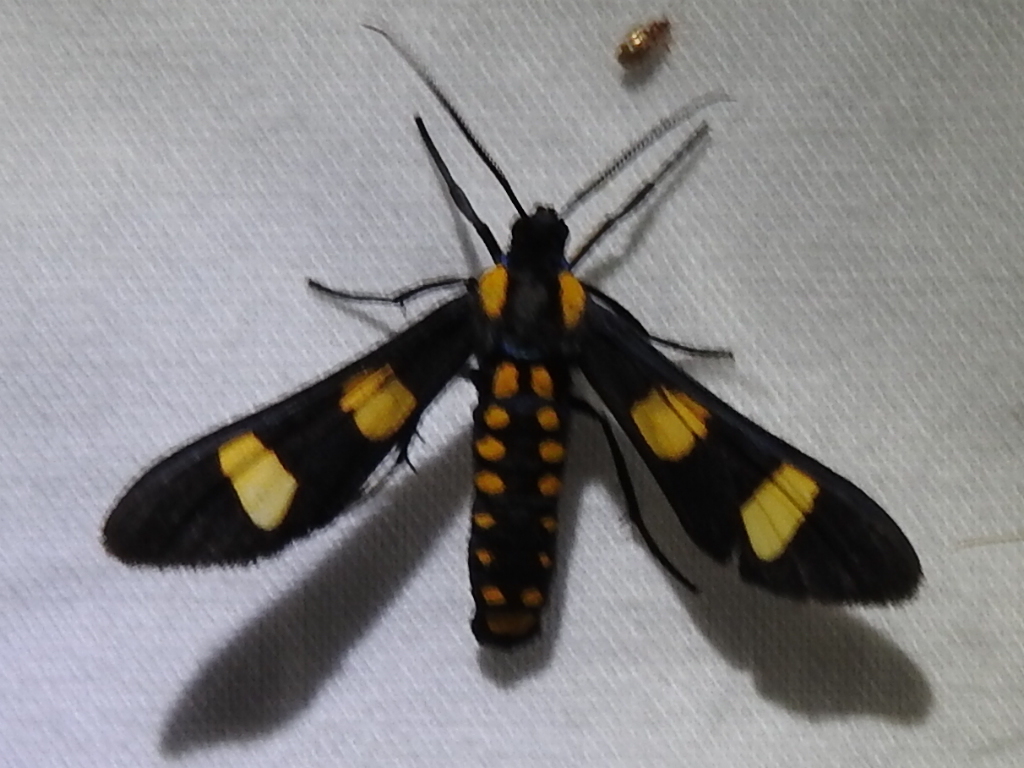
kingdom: Animalia
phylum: Arthropoda
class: Insecta
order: Lepidoptera
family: Erebidae
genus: Phoenicoprocta
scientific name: Phoenicoprocta hampsonii
